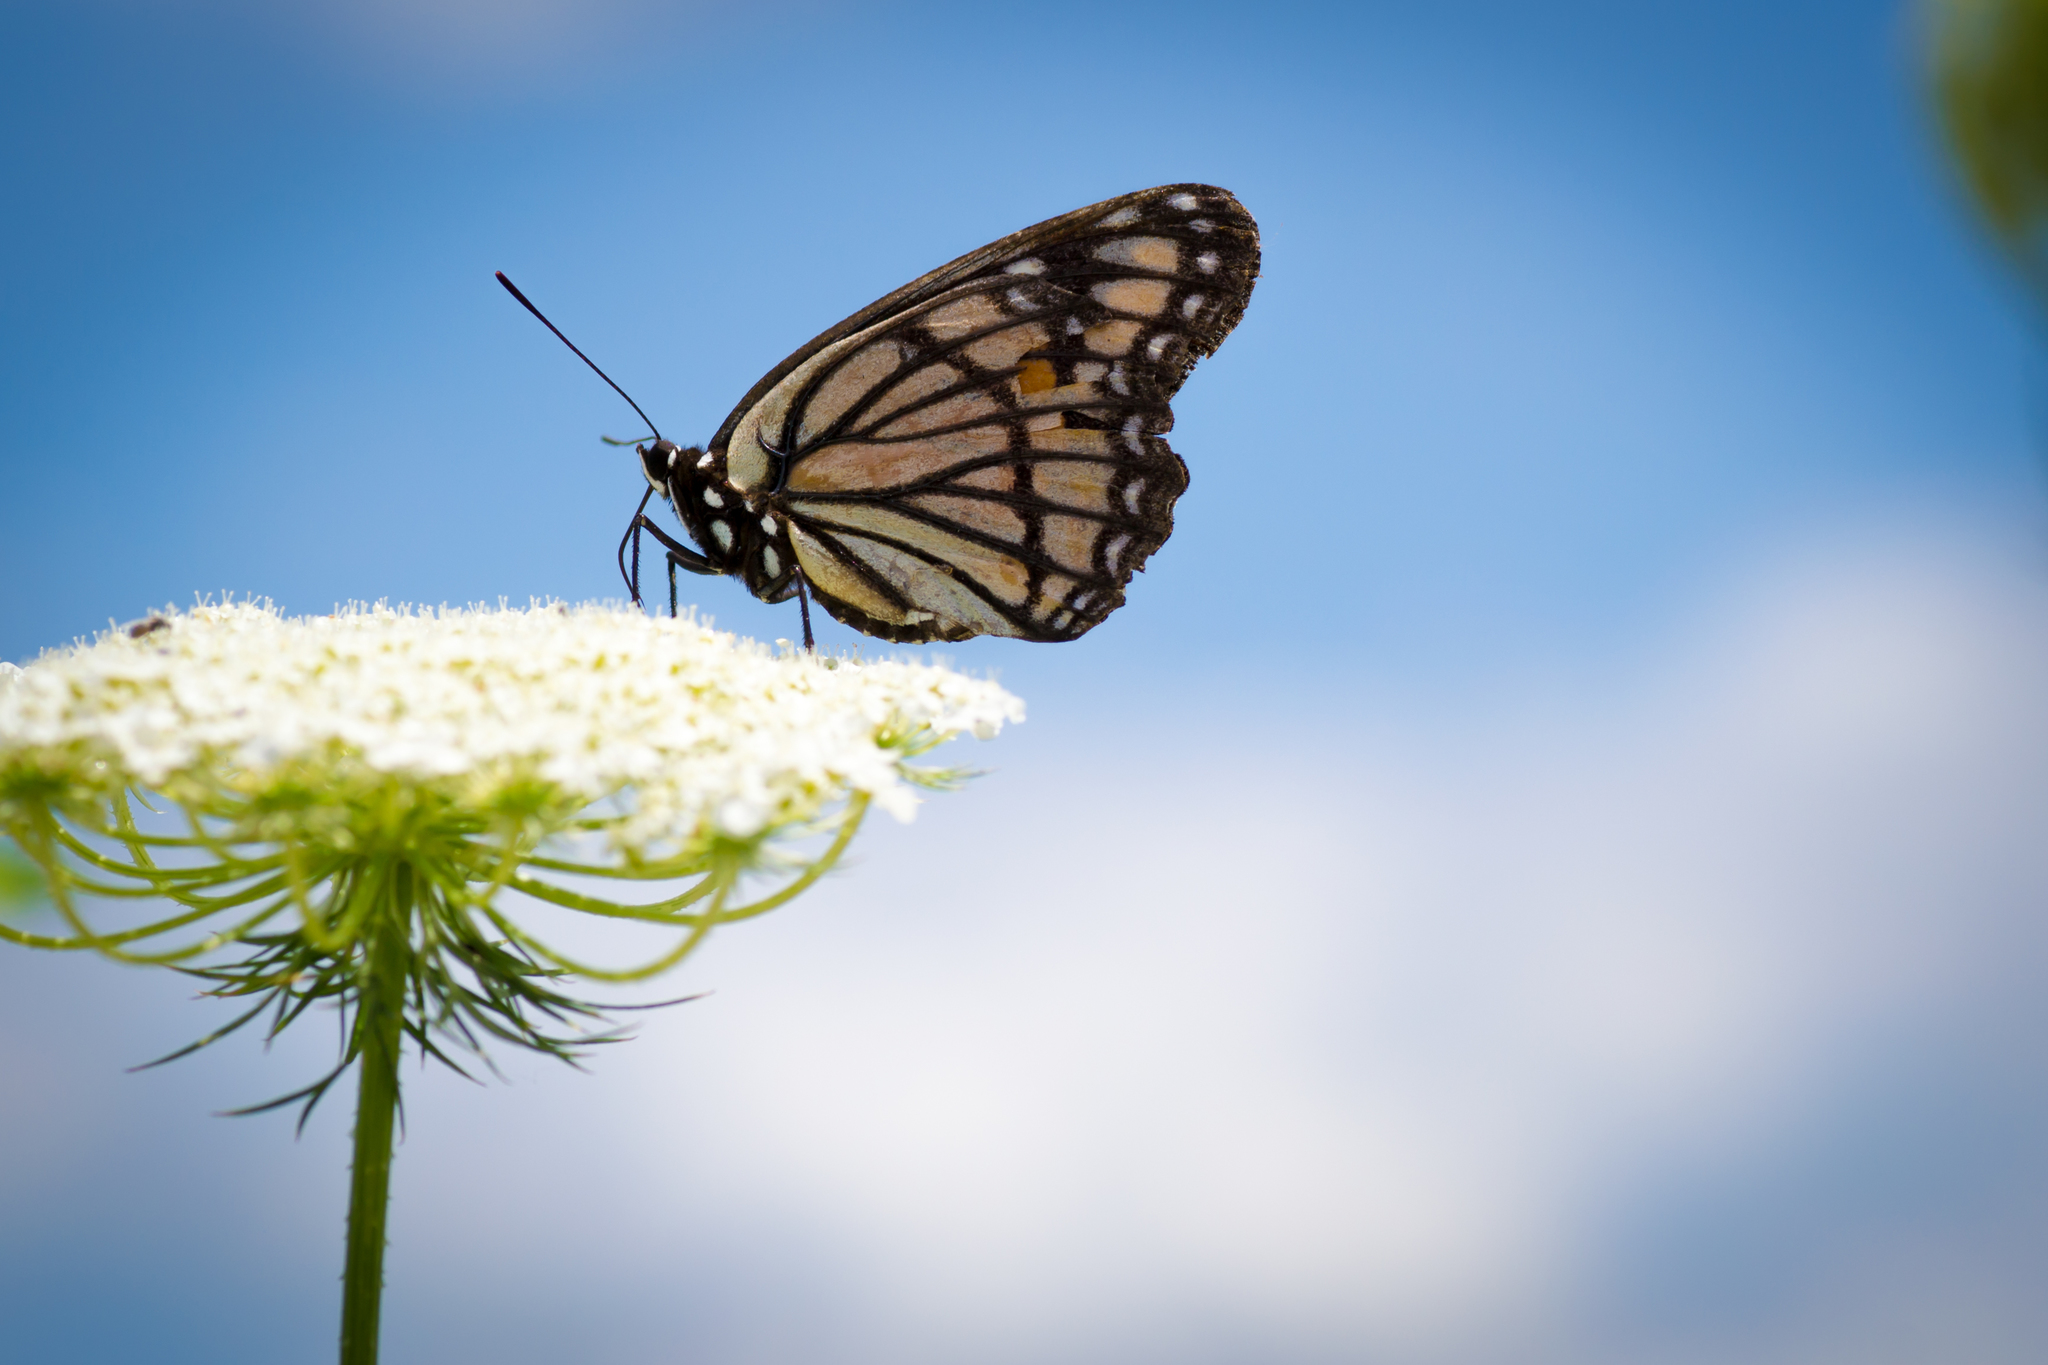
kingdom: Animalia
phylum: Arthropoda
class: Insecta
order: Lepidoptera
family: Nymphalidae
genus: Limenitis
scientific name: Limenitis archippus
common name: Viceroy
